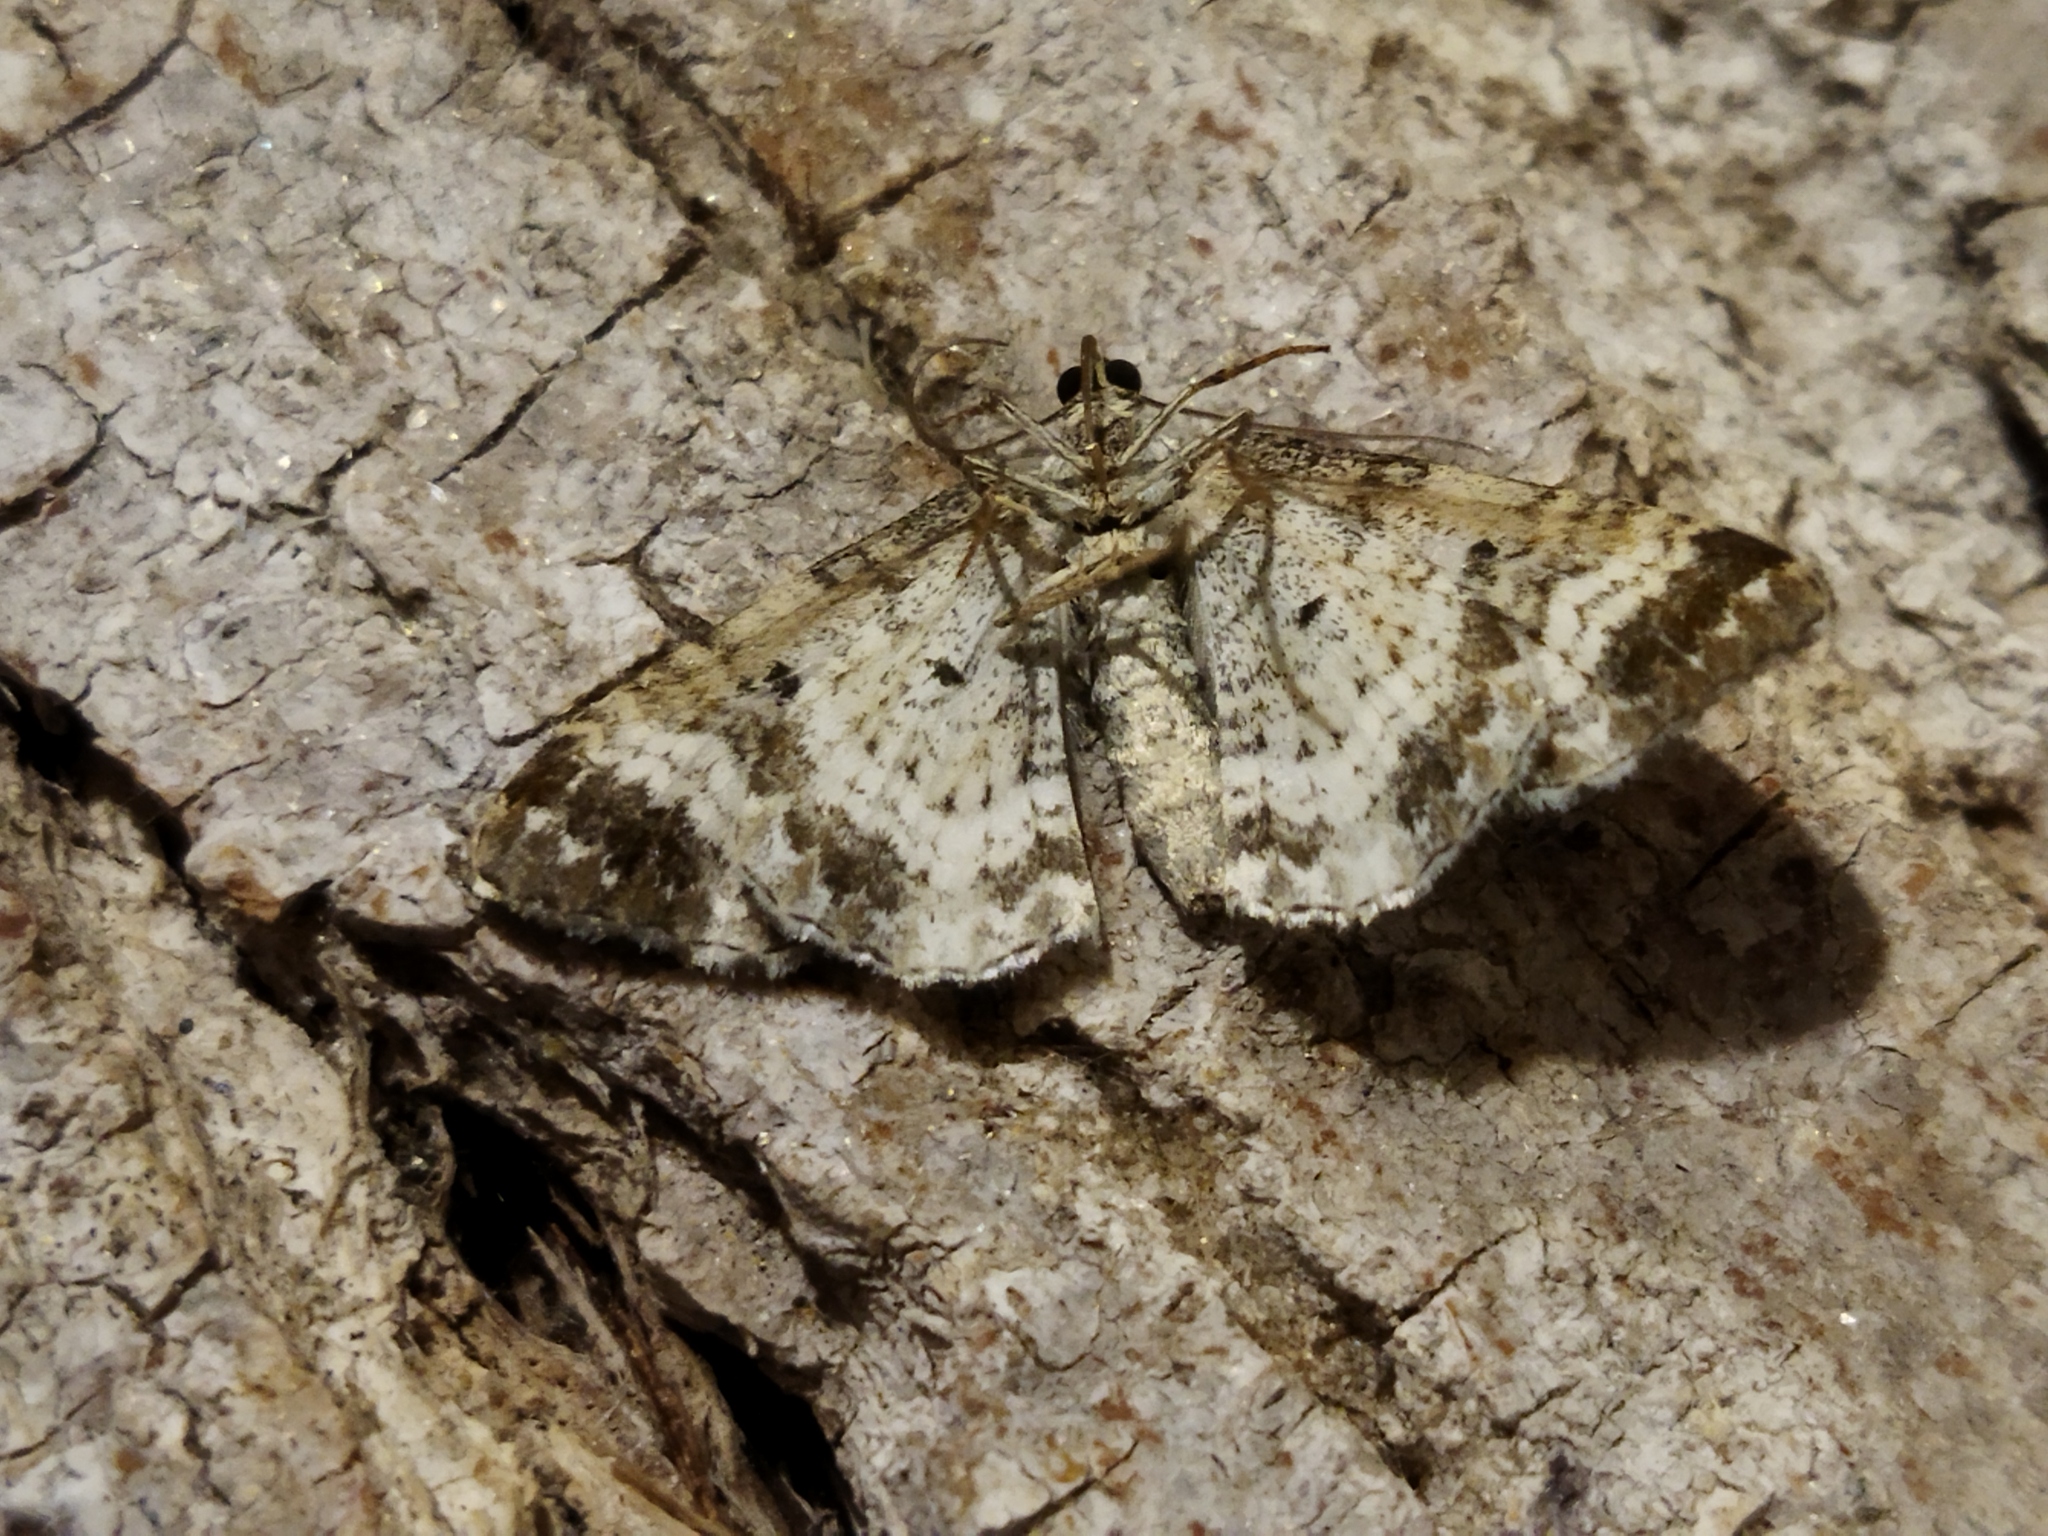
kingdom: Animalia
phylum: Arthropoda
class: Insecta
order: Lepidoptera
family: Geometridae
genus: Epirrhoe
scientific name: Epirrhoe alternata
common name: Common carpet
